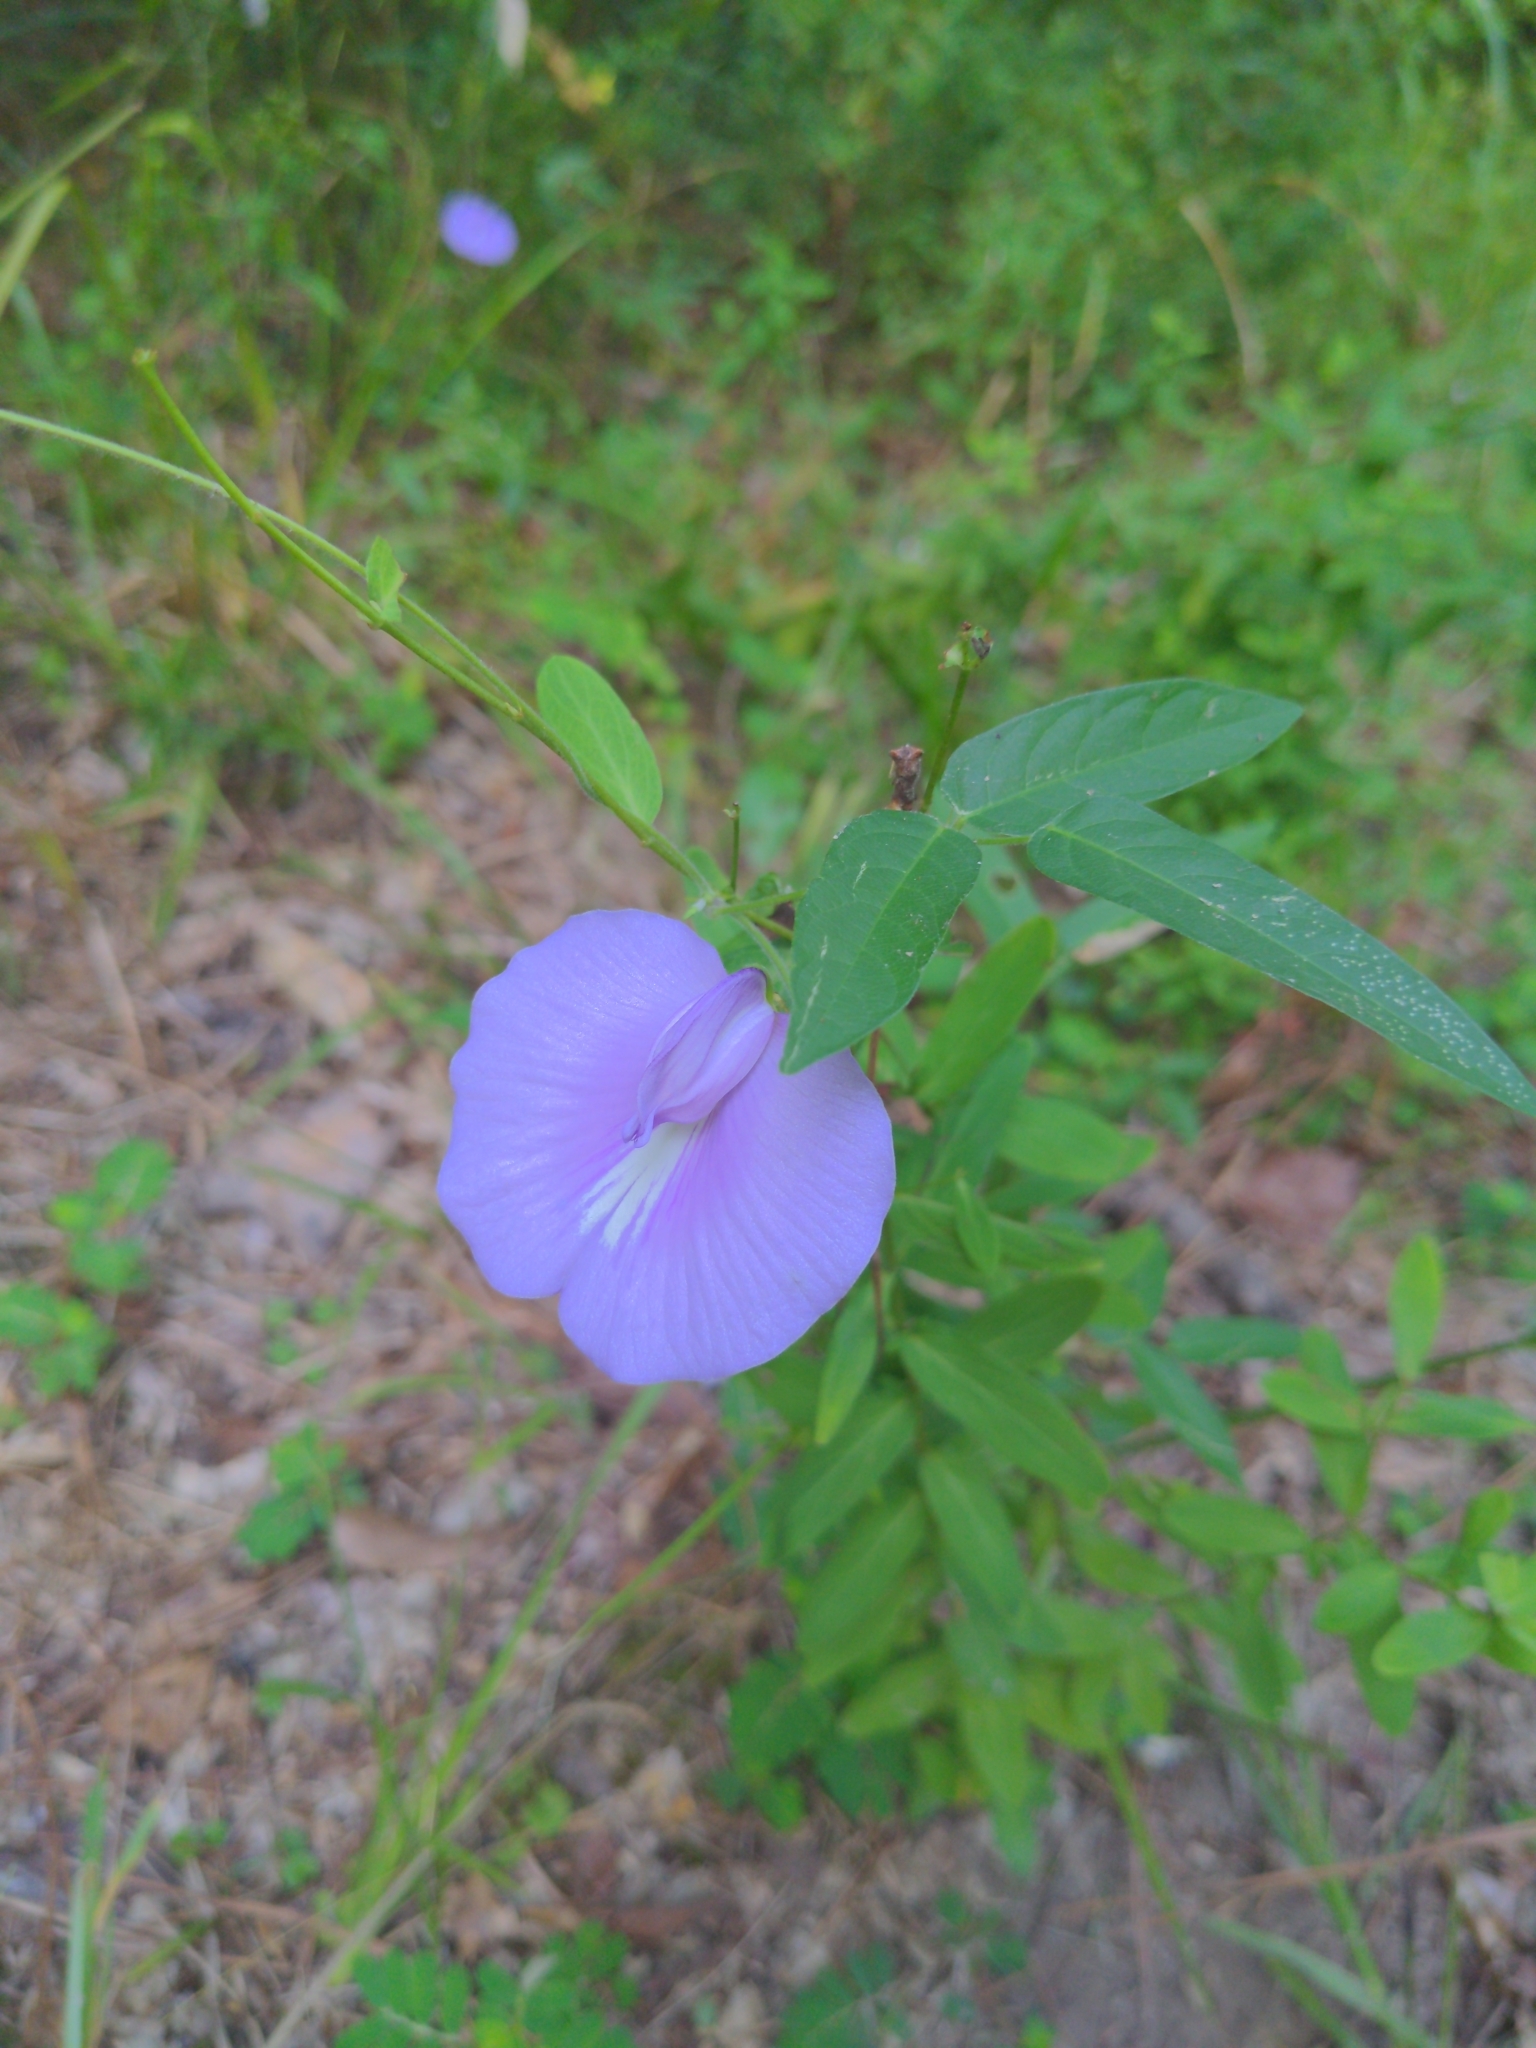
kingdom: Plantae
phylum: Tracheophyta
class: Magnoliopsida
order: Fabales
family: Fabaceae
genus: Centrosema
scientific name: Centrosema virginianum
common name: Butterfly-pea
